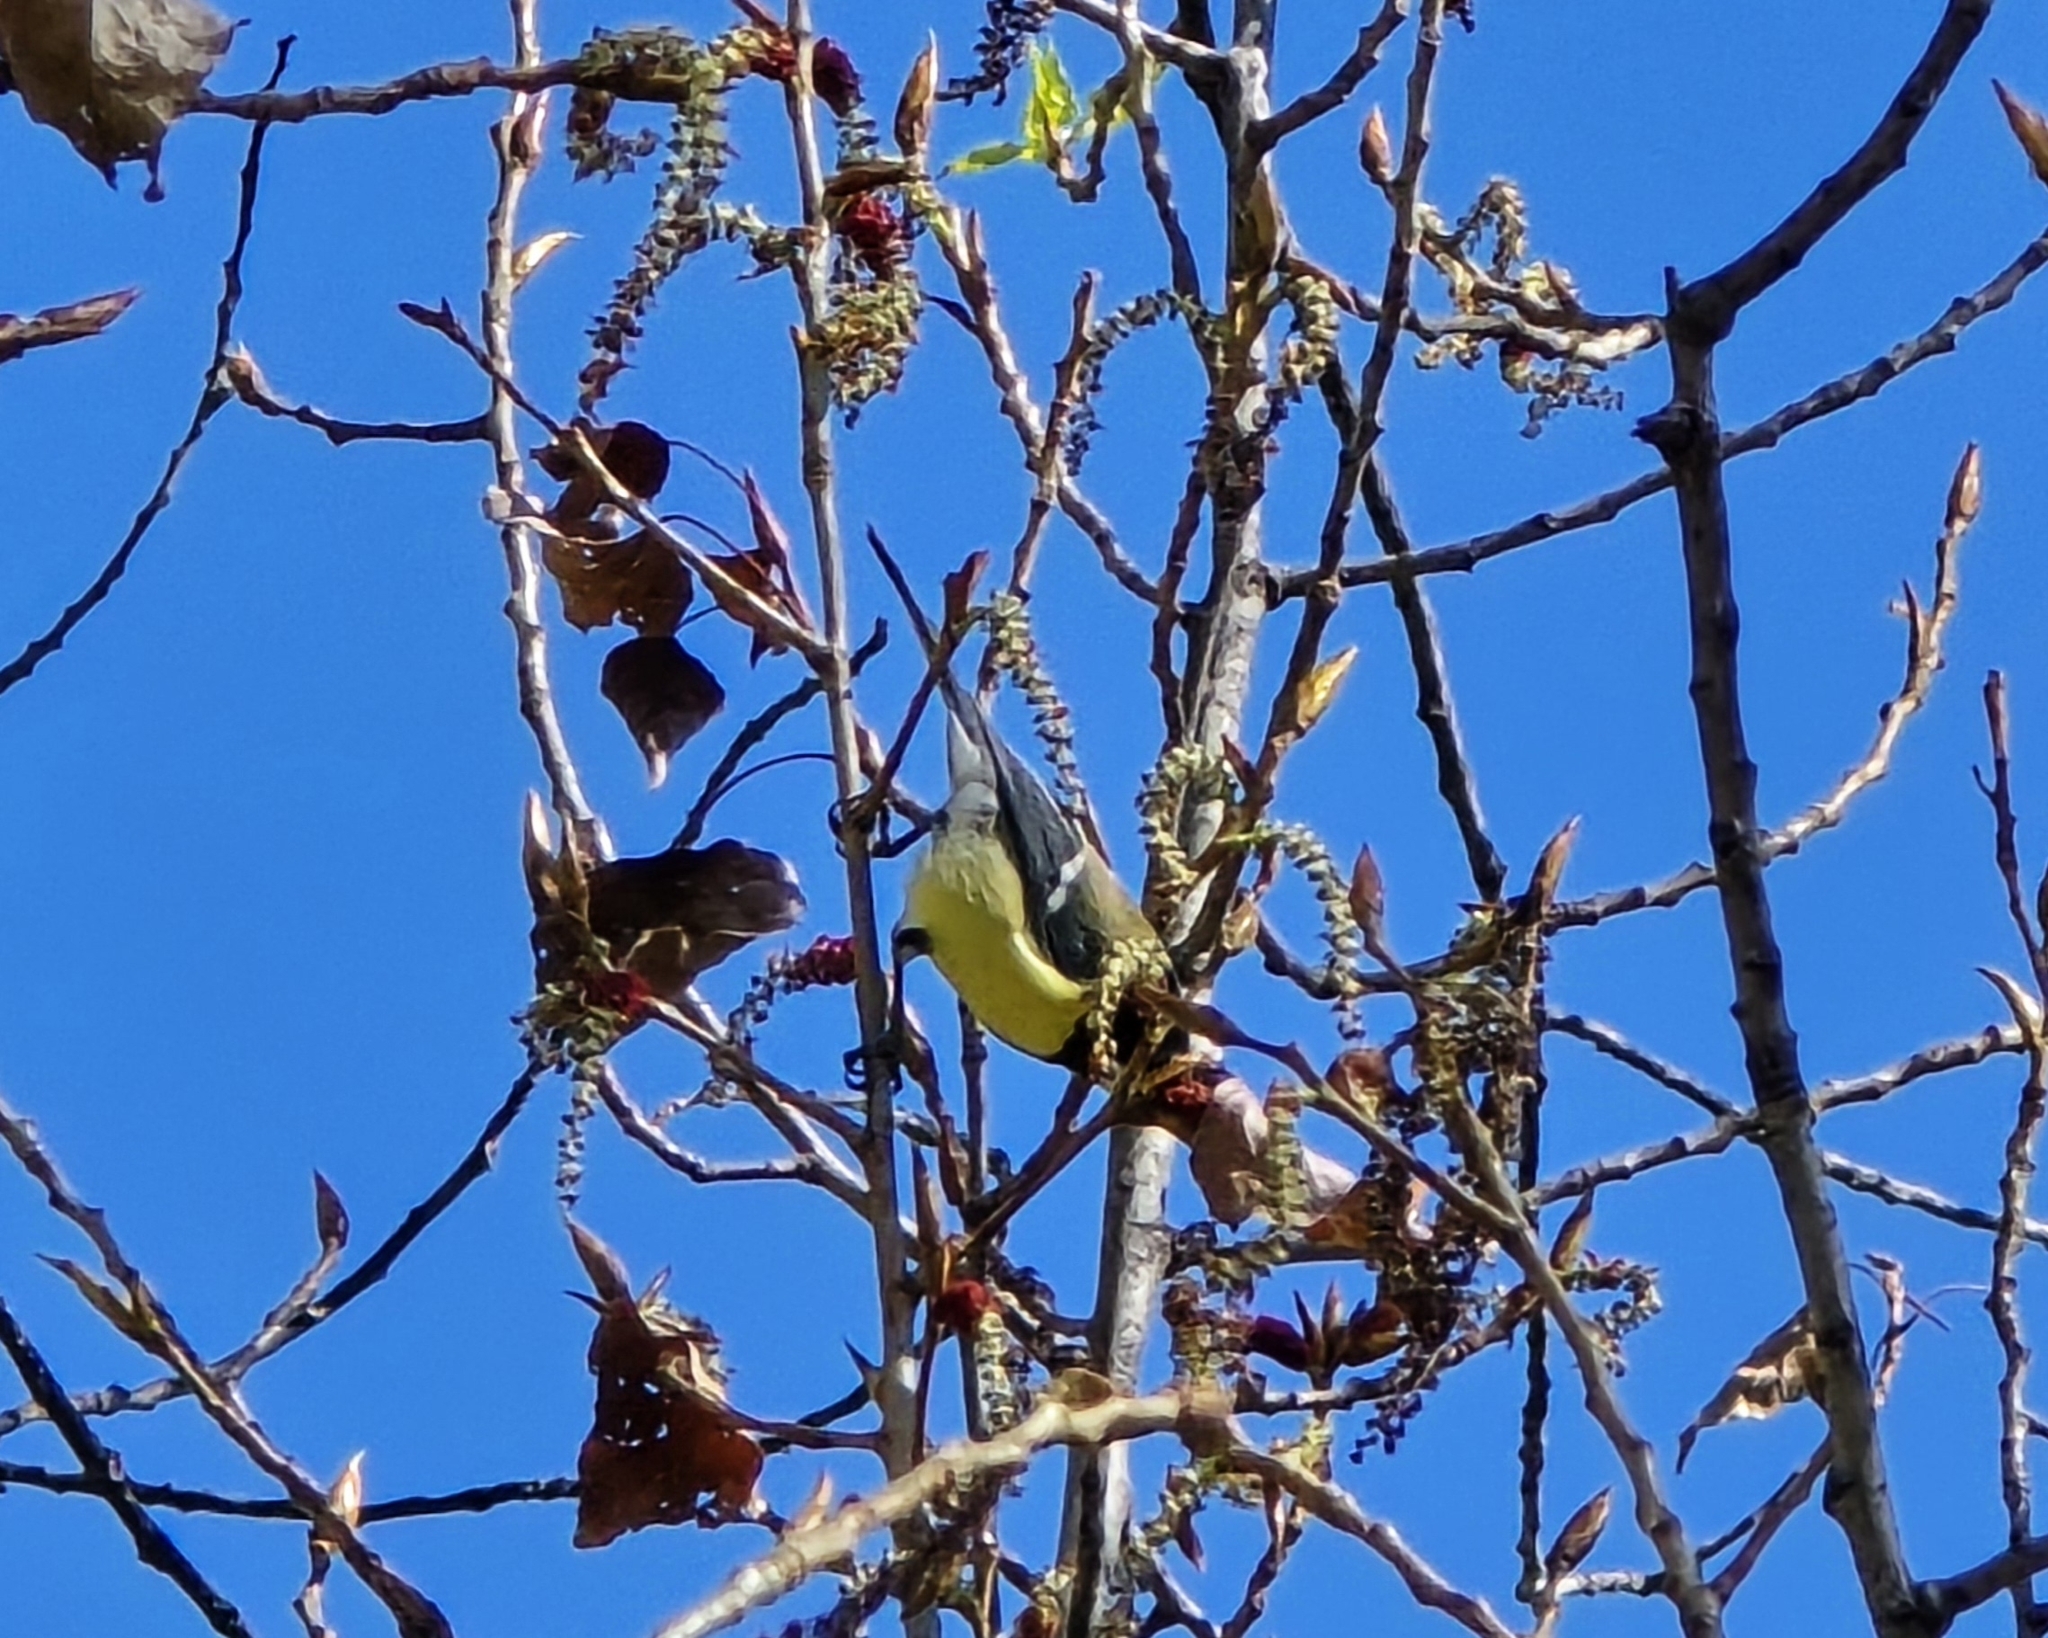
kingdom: Animalia
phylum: Chordata
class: Aves
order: Passeriformes
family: Paridae
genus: Parus
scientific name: Parus major
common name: Great tit
